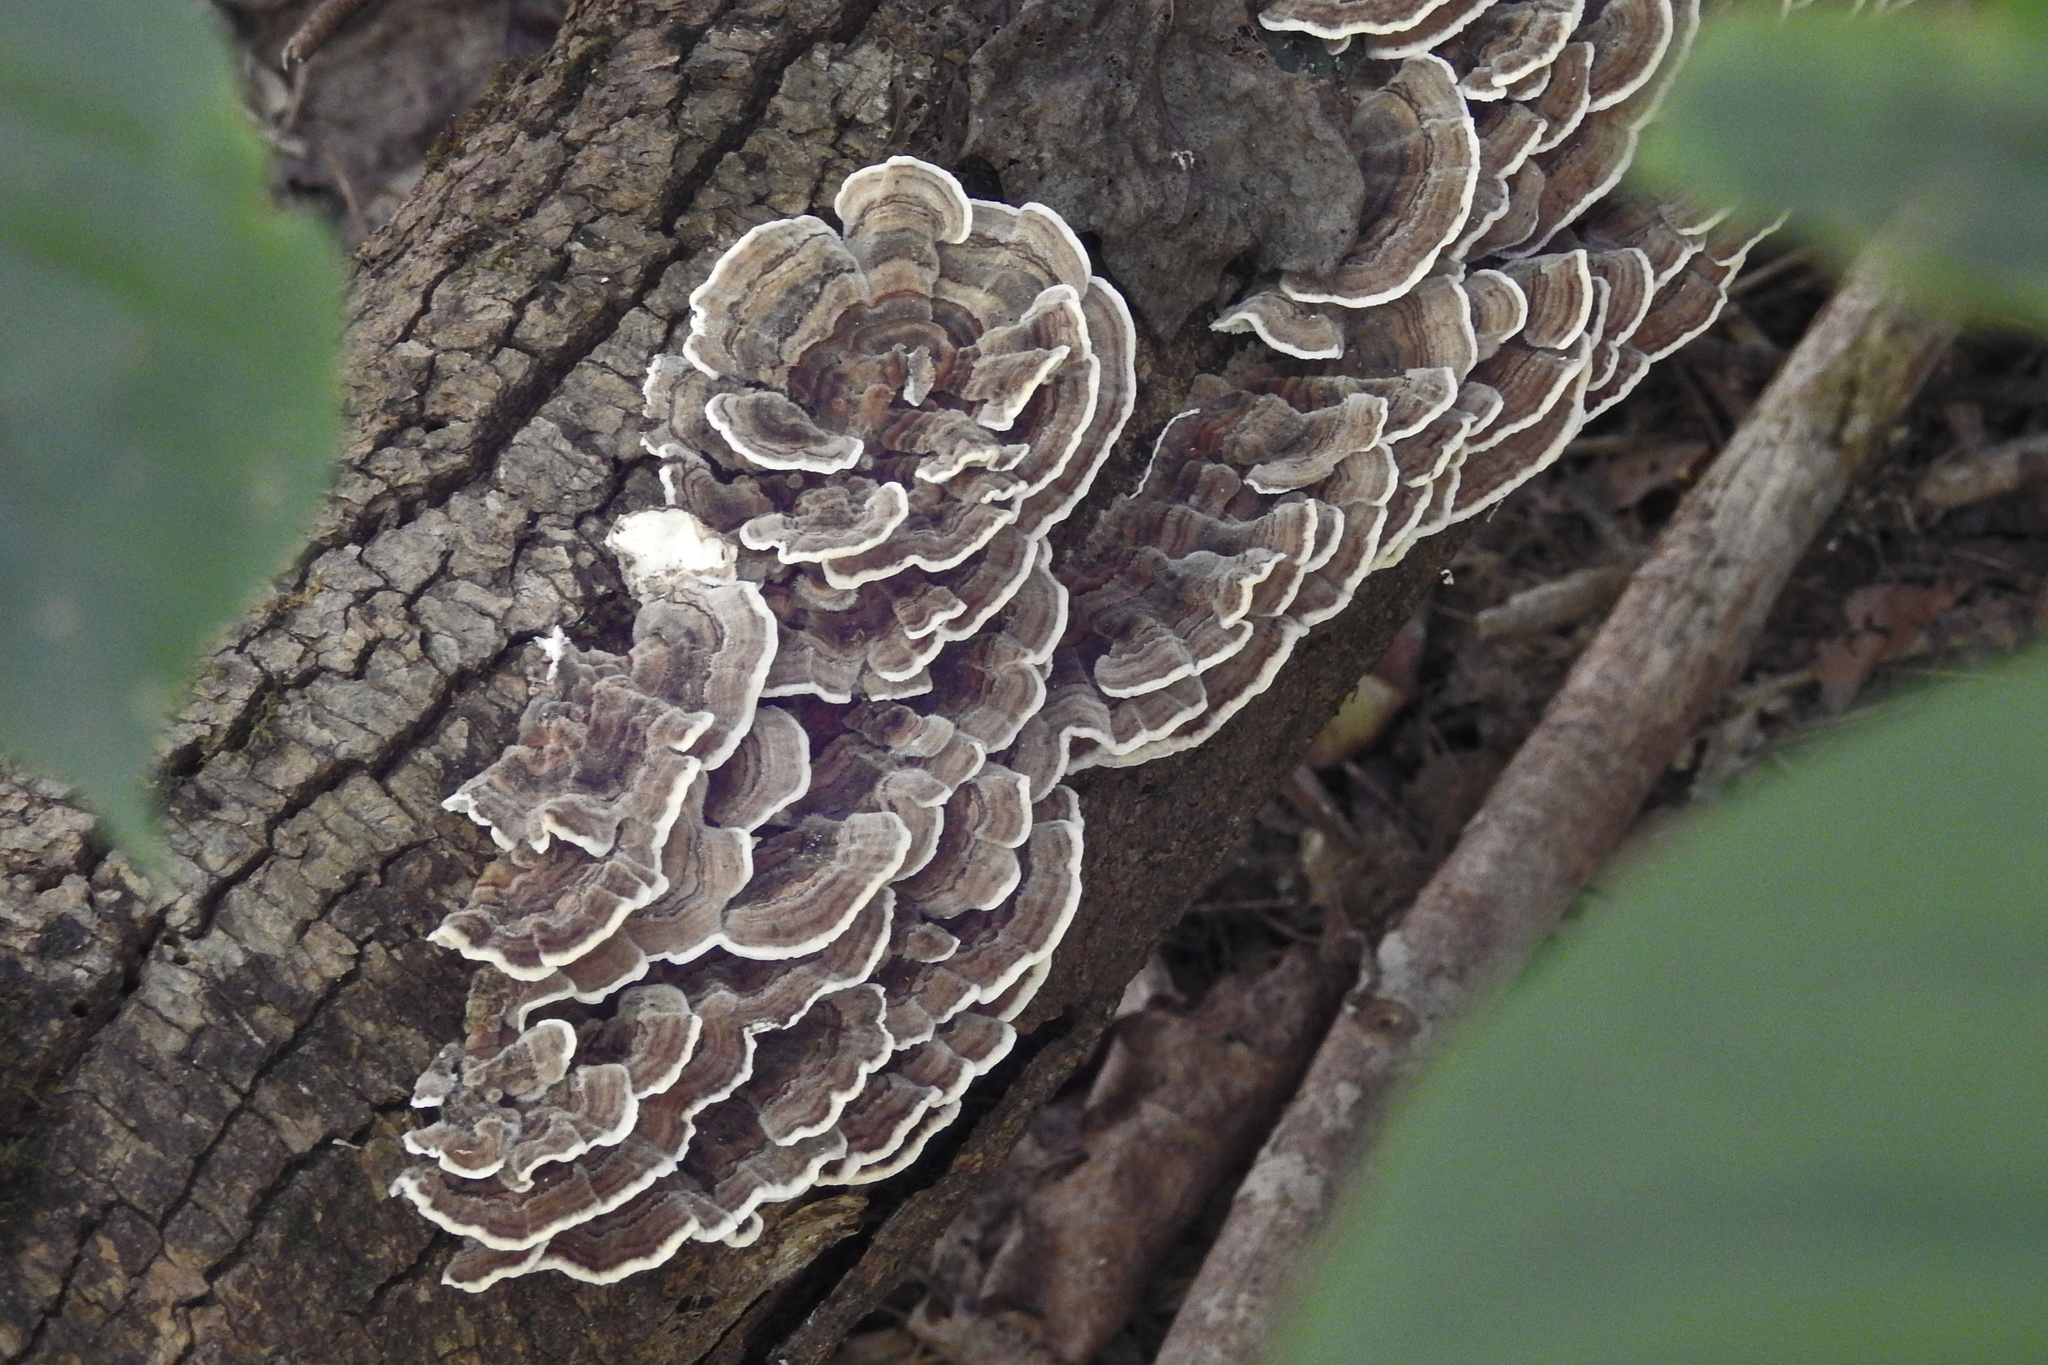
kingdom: Fungi
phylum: Basidiomycota
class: Agaricomycetes
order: Polyporales
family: Polyporaceae
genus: Trametes
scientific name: Trametes versicolor
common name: Turkeytail
